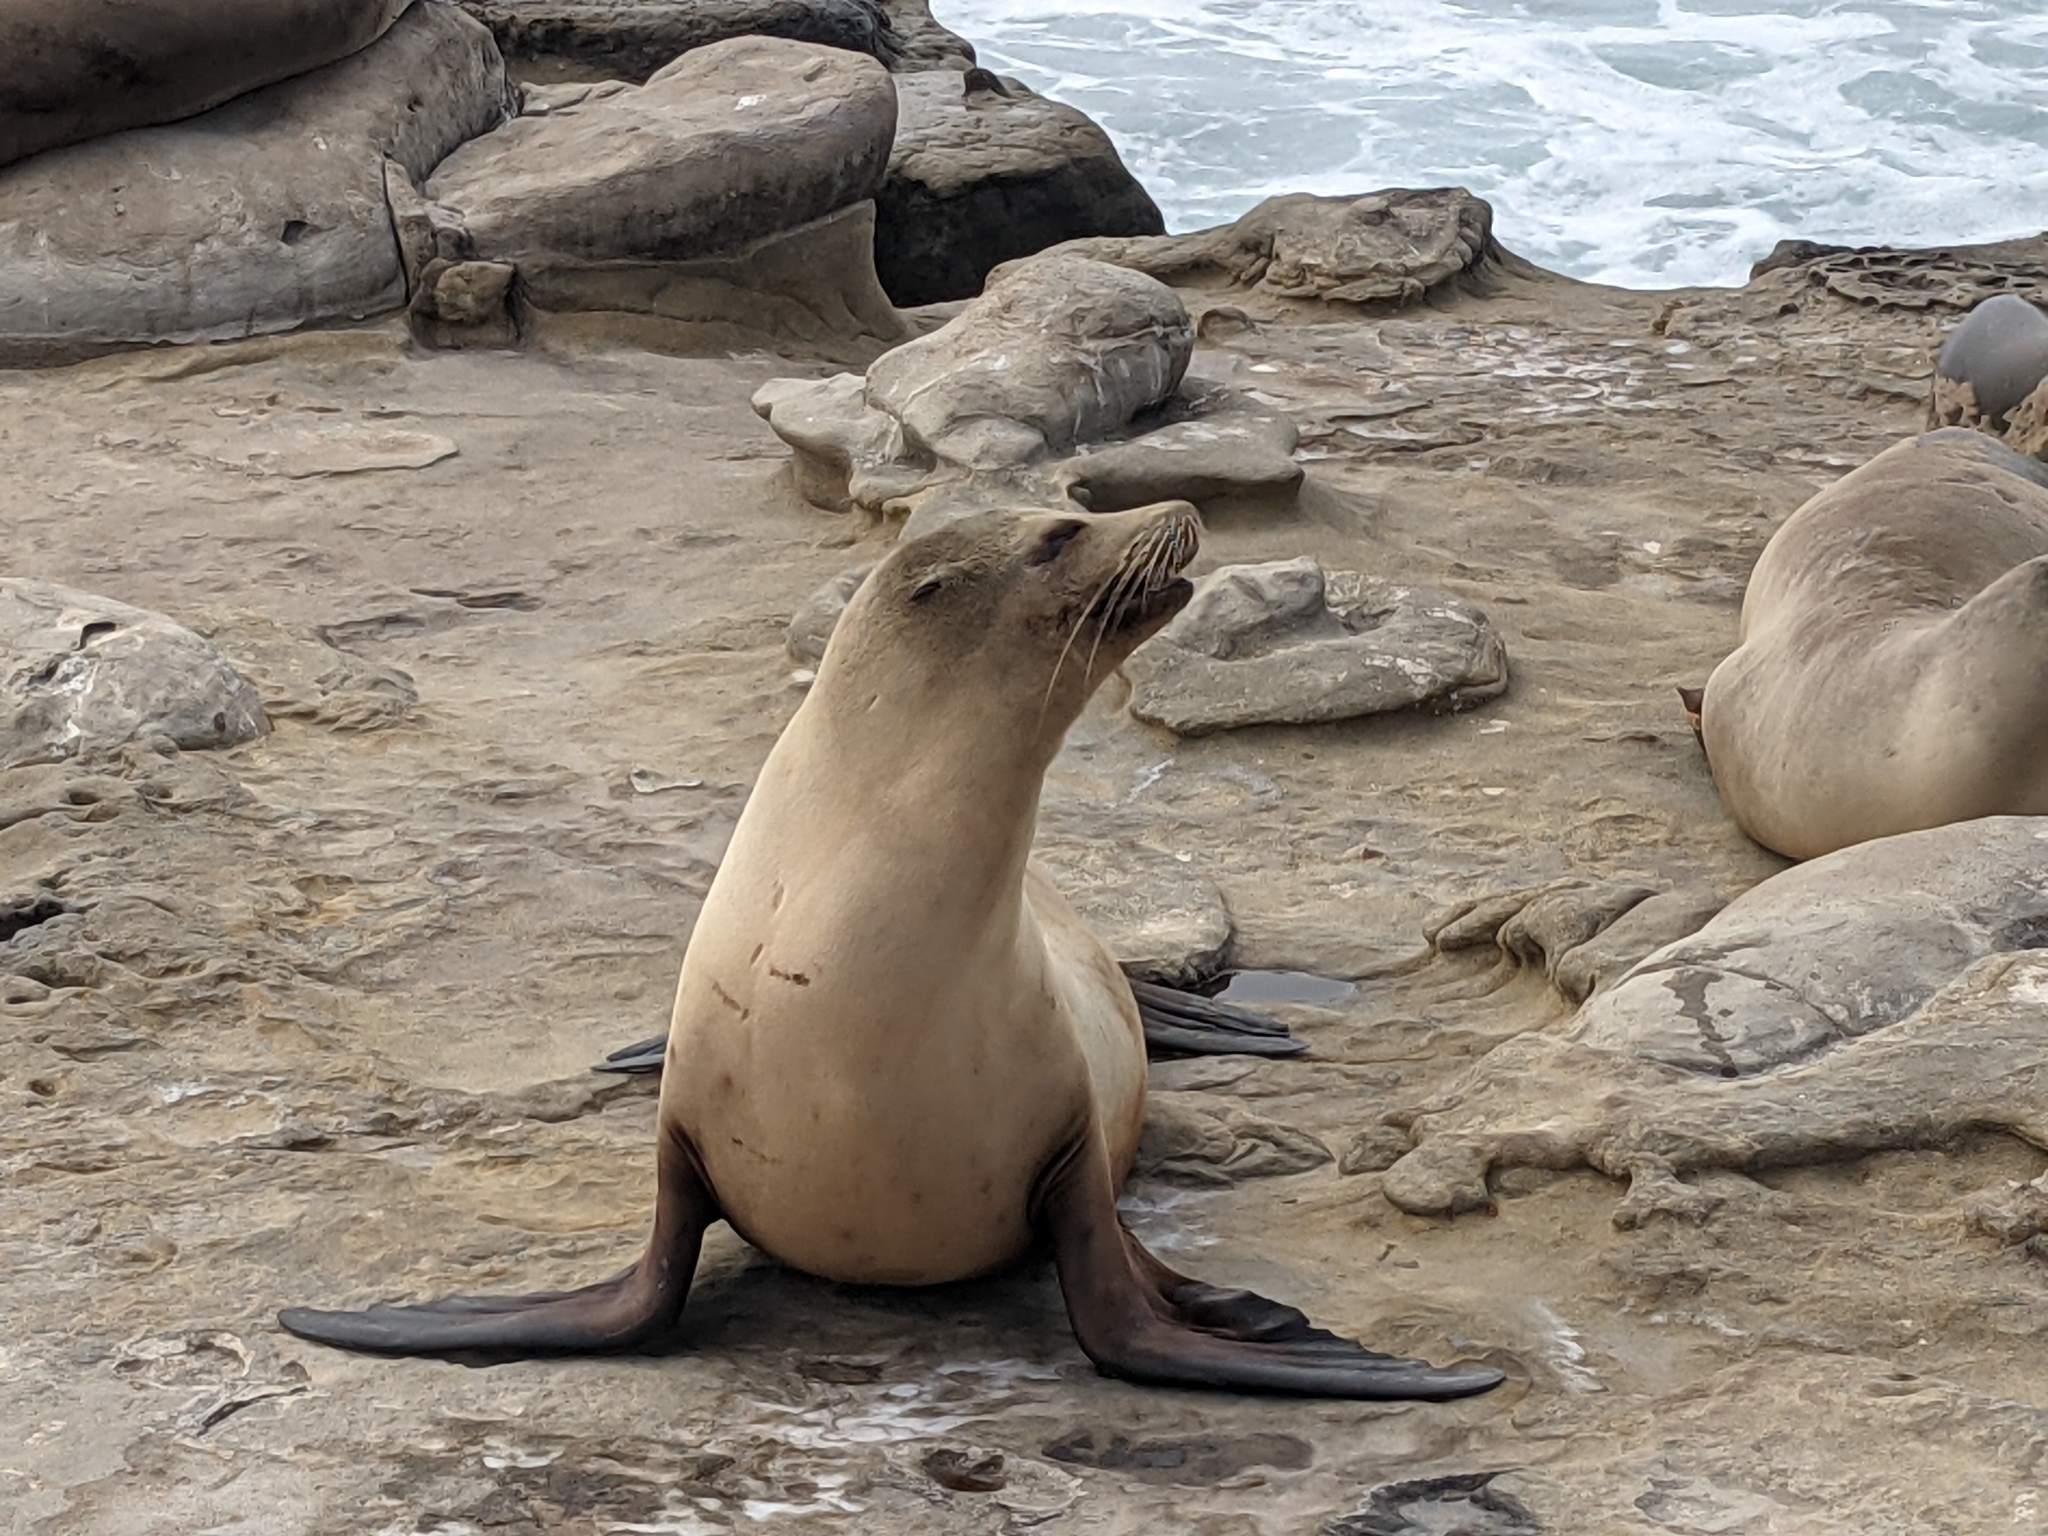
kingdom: Animalia
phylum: Chordata
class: Mammalia
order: Carnivora
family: Otariidae
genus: Zalophus
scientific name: Zalophus californianus
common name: California sea lion
